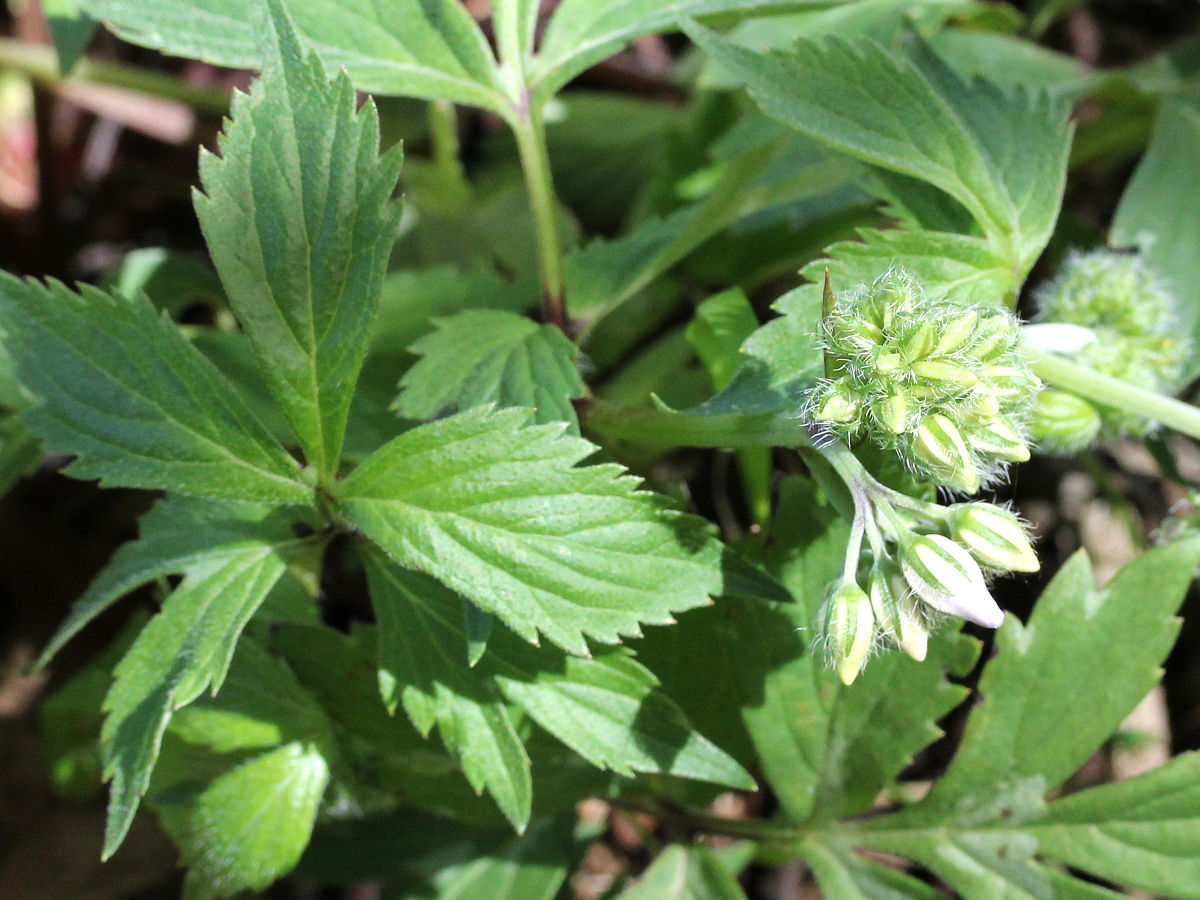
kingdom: Plantae
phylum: Tracheophyta
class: Magnoliopsida
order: Boraginales
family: Hydrophyllaceae
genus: Hydrophyllum
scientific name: Hydrophyllum virginianum
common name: Virginia waterleaf
